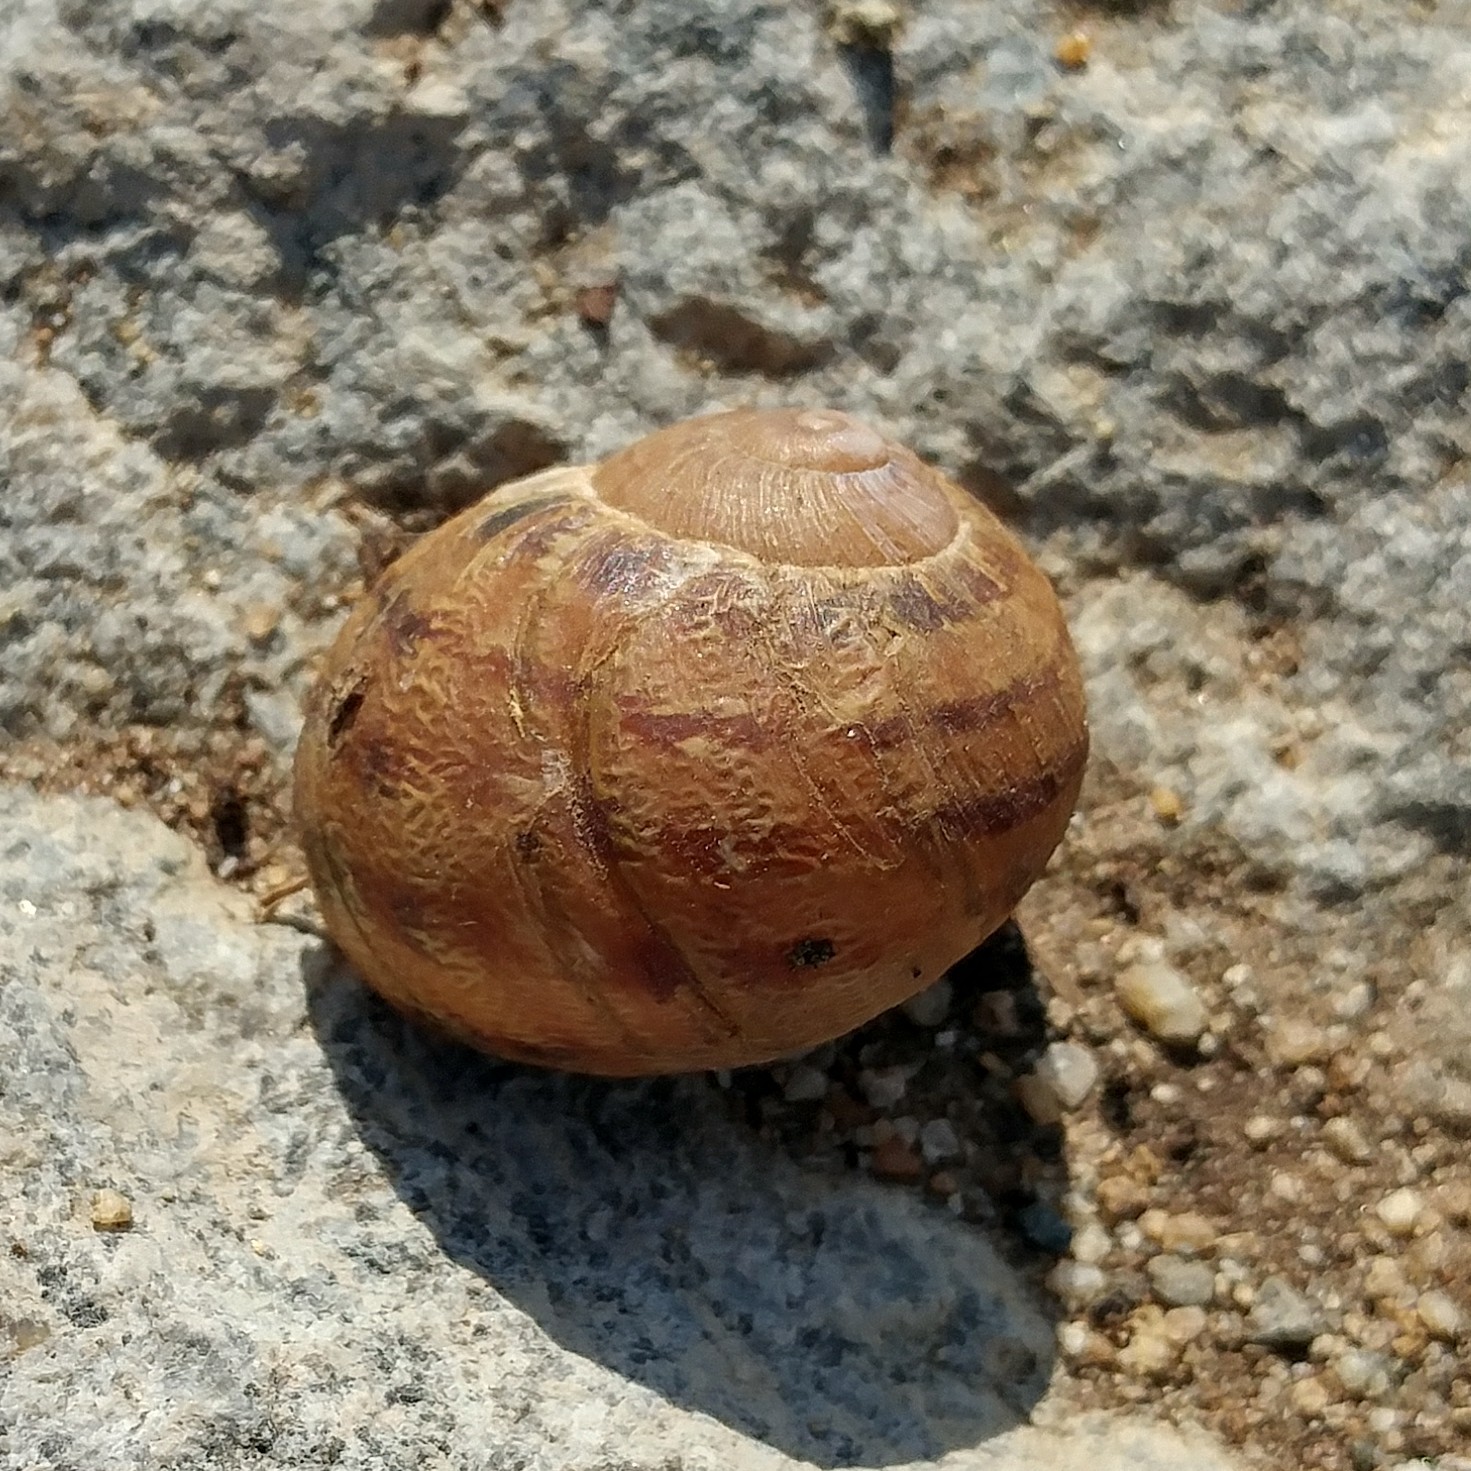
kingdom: Animalia
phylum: Mollusca
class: Gastropoda
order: Stylommatophora
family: Helicidae
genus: Cornu
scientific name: Cornu aspersum
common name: Brown garden snail
